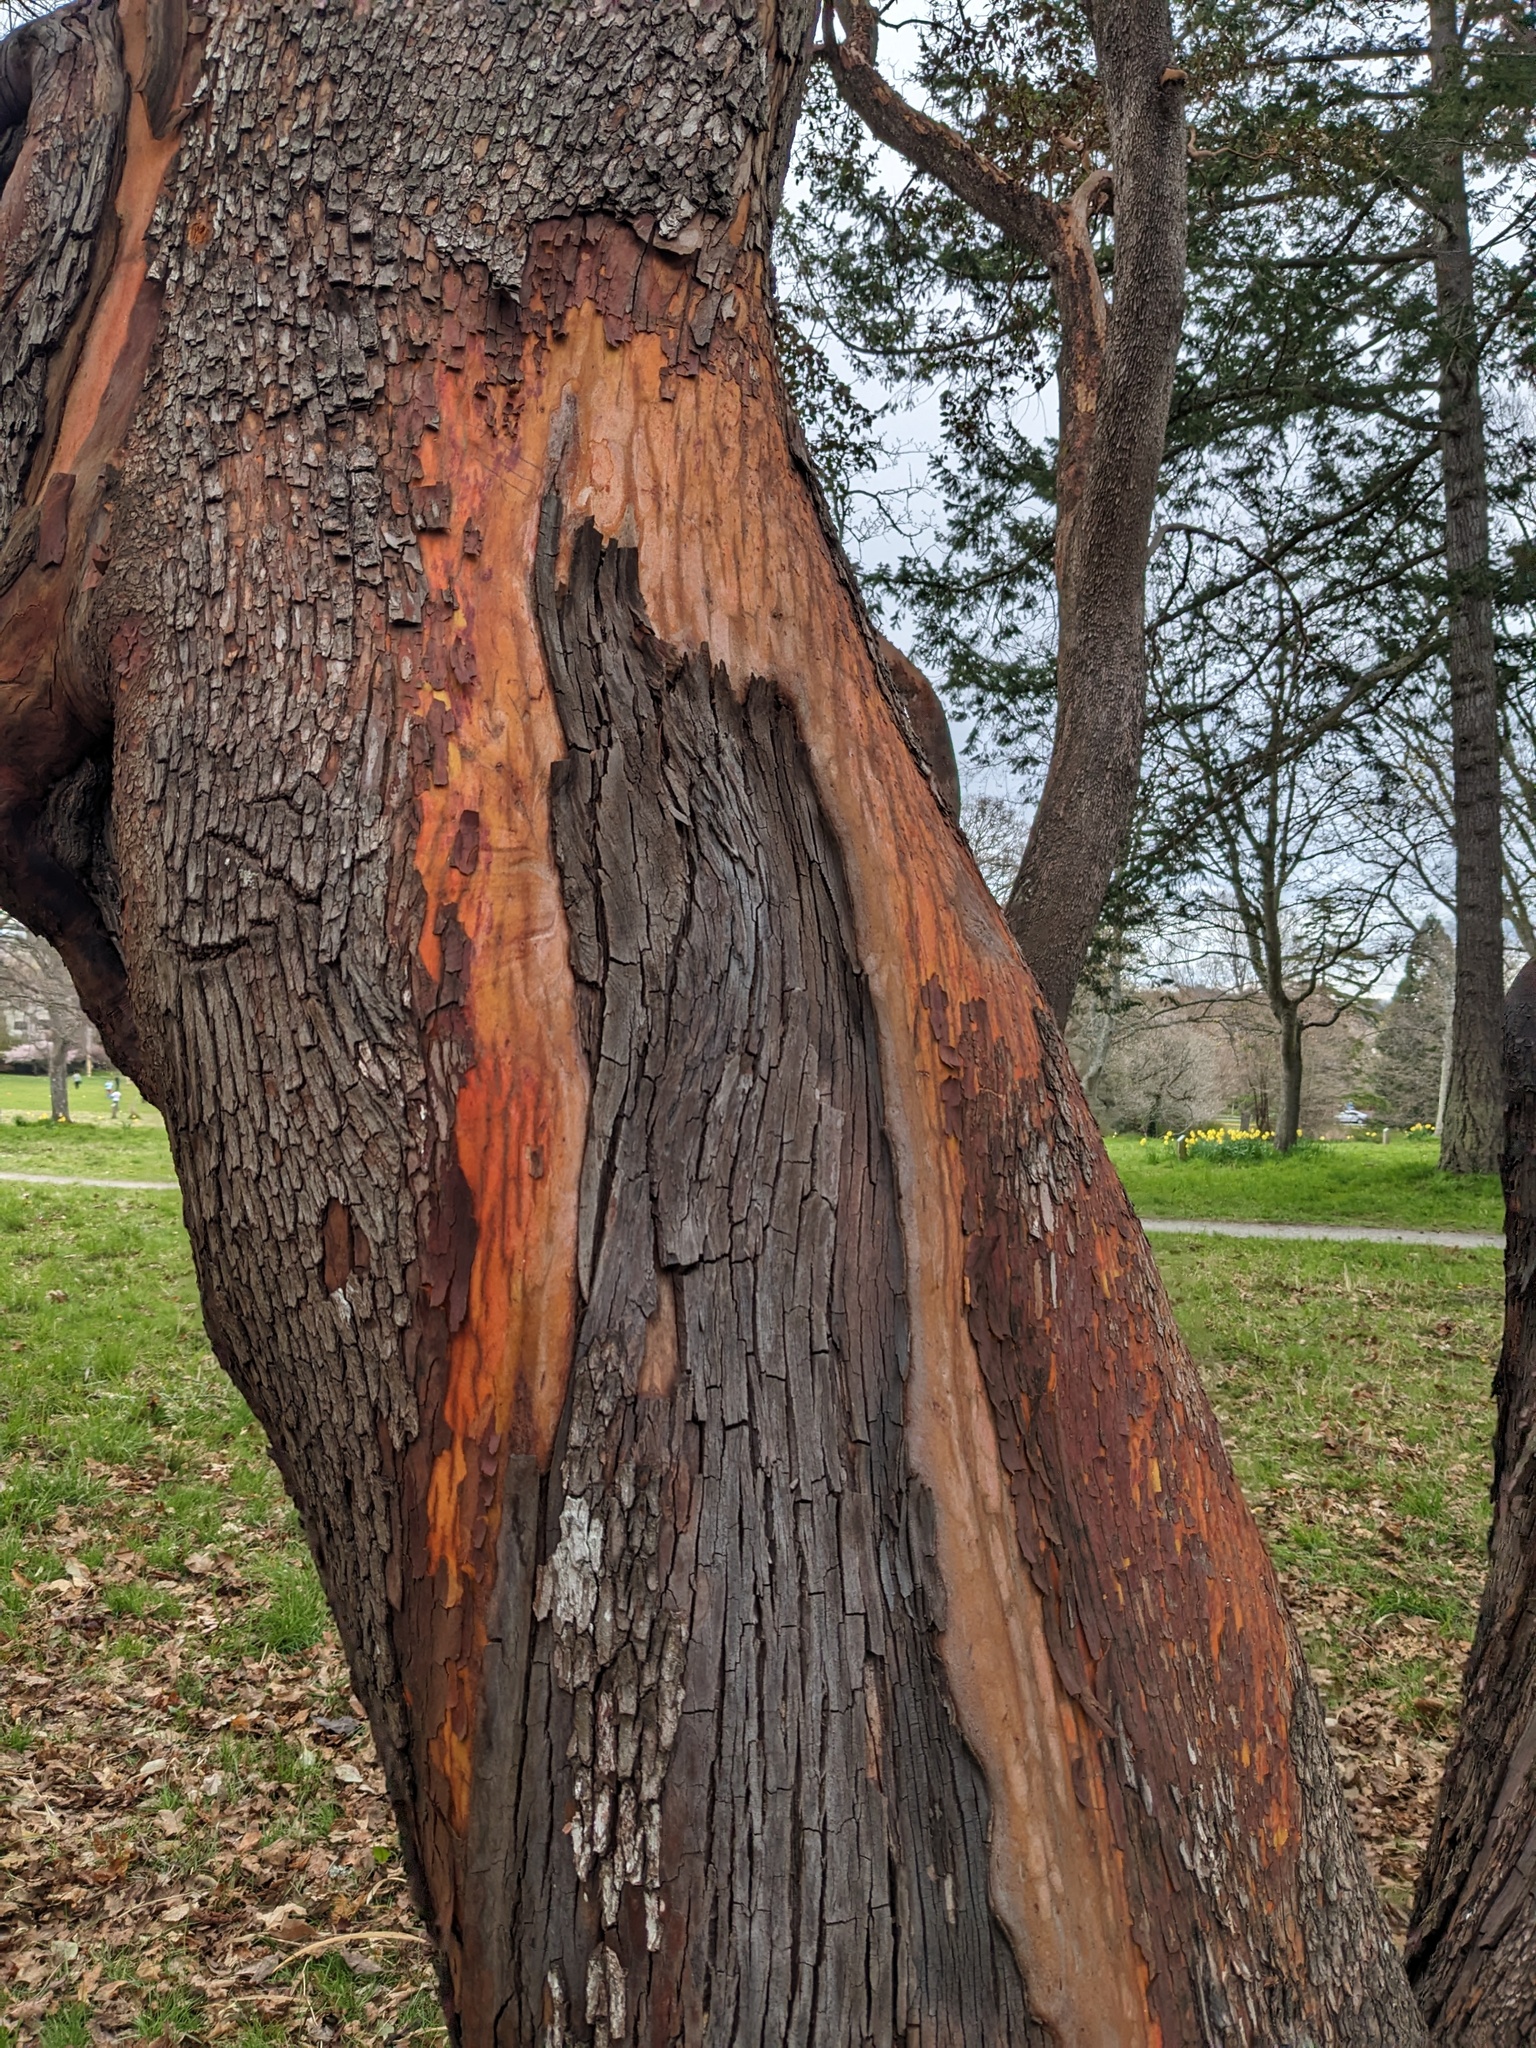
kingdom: Plantae
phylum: Tracheophyta
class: Magnoliopsida
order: Ericales
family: Ericaceae
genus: Arbutus
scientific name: Arbutus menziesii
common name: Pacific madrone
